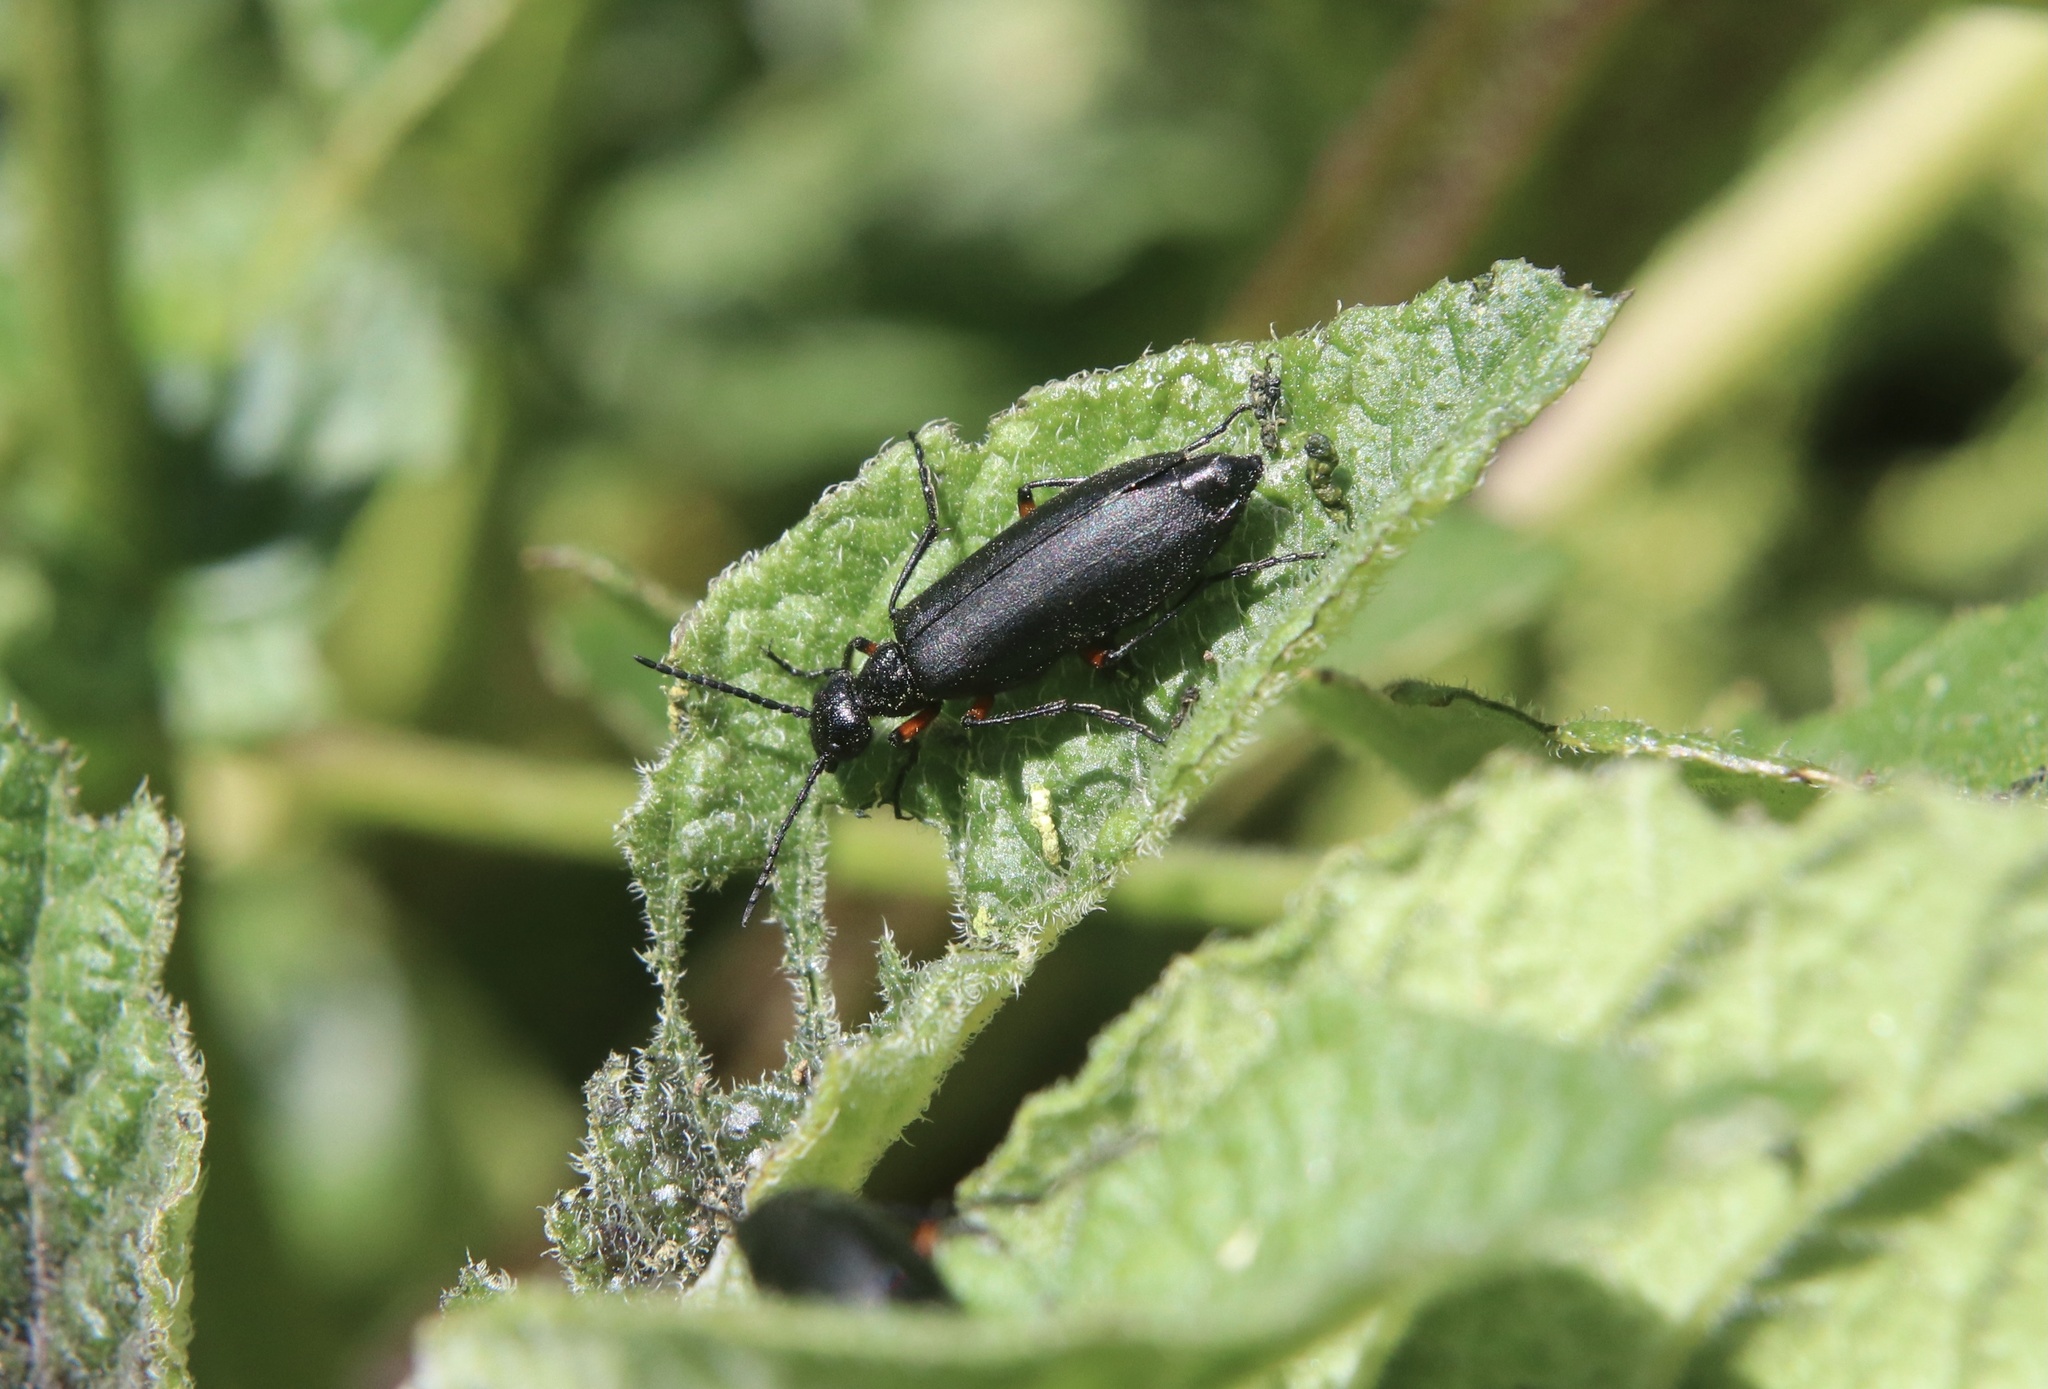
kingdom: Animalia
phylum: Arthropoda
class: Insecta
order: Coleoptera
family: Meloidae
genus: Epicauta
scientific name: Epicauta
